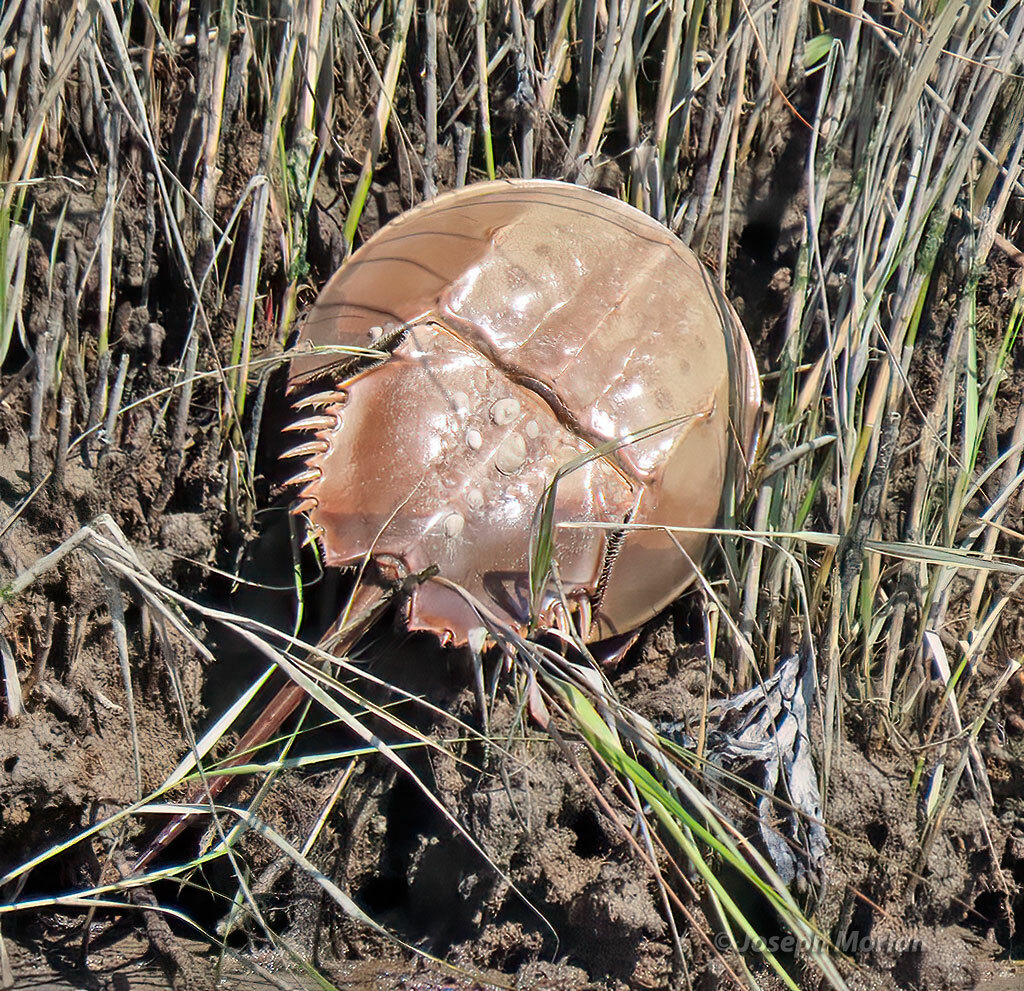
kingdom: Animalia
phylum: Arthropoda
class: Merostomata
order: Xiphosurida
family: Limulidae
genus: Limulus
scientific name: Limulus polyphemus
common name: Horseshoe crab
